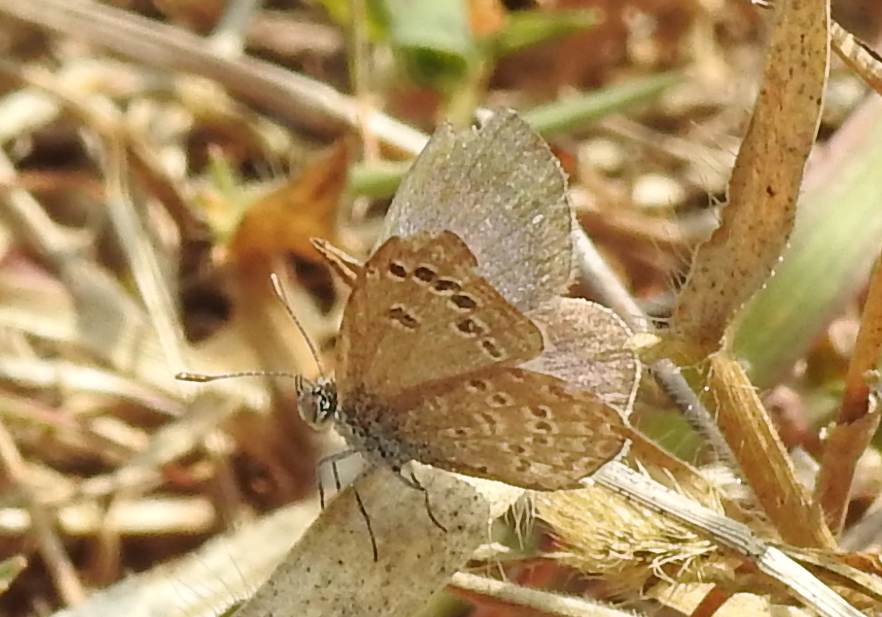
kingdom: Animalia
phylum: Arthropoda
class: Insecta
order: Lepidoptera
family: Lycaenidae
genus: Zizina
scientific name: Zizina otis
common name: Lesser grass blue
